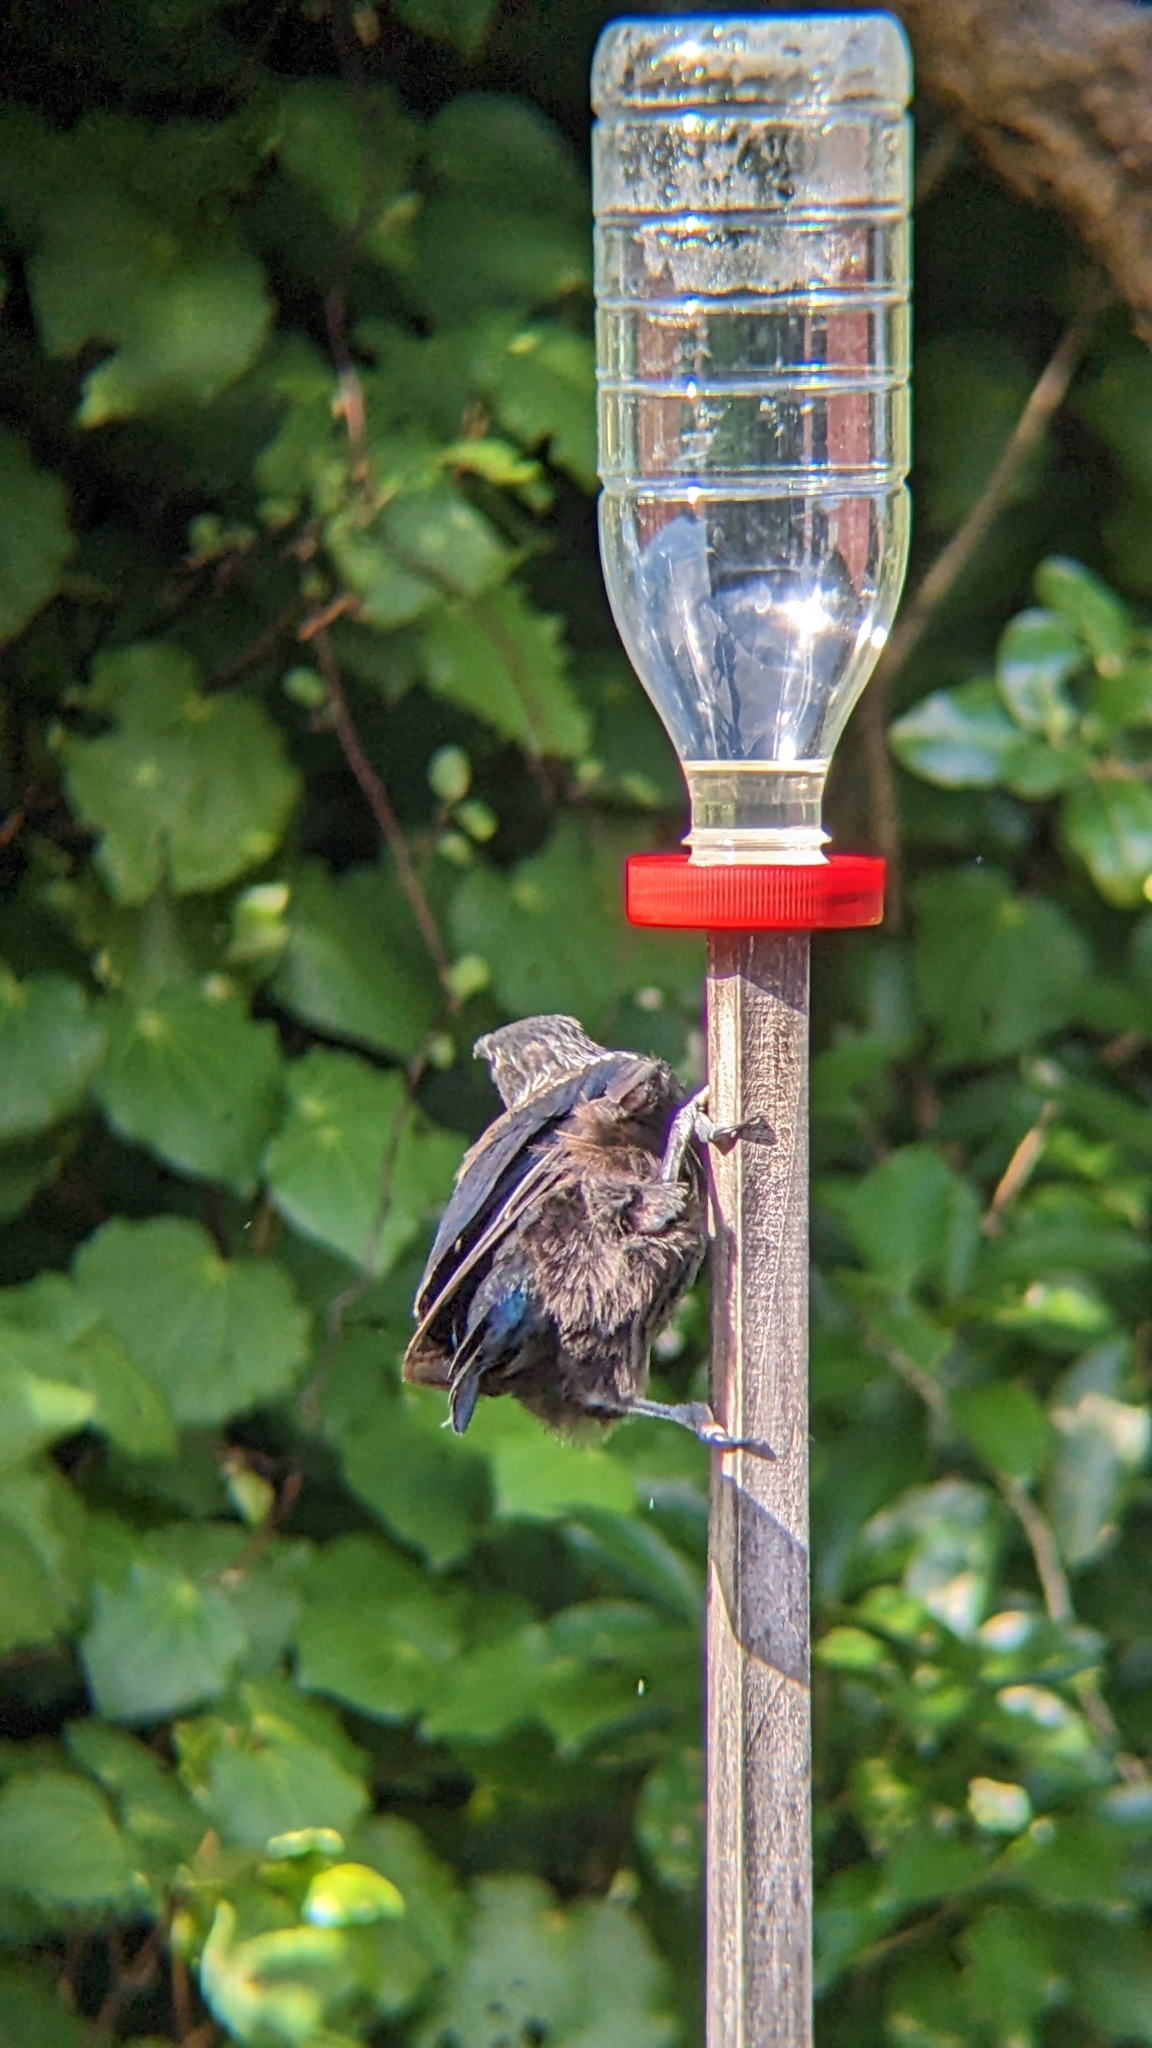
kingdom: Animalia
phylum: Chordata
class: Aves
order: Passeriformes
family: Meliphagidae
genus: Prosthemadera
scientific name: Prosthemadera novaeseelandiae
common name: Tui
